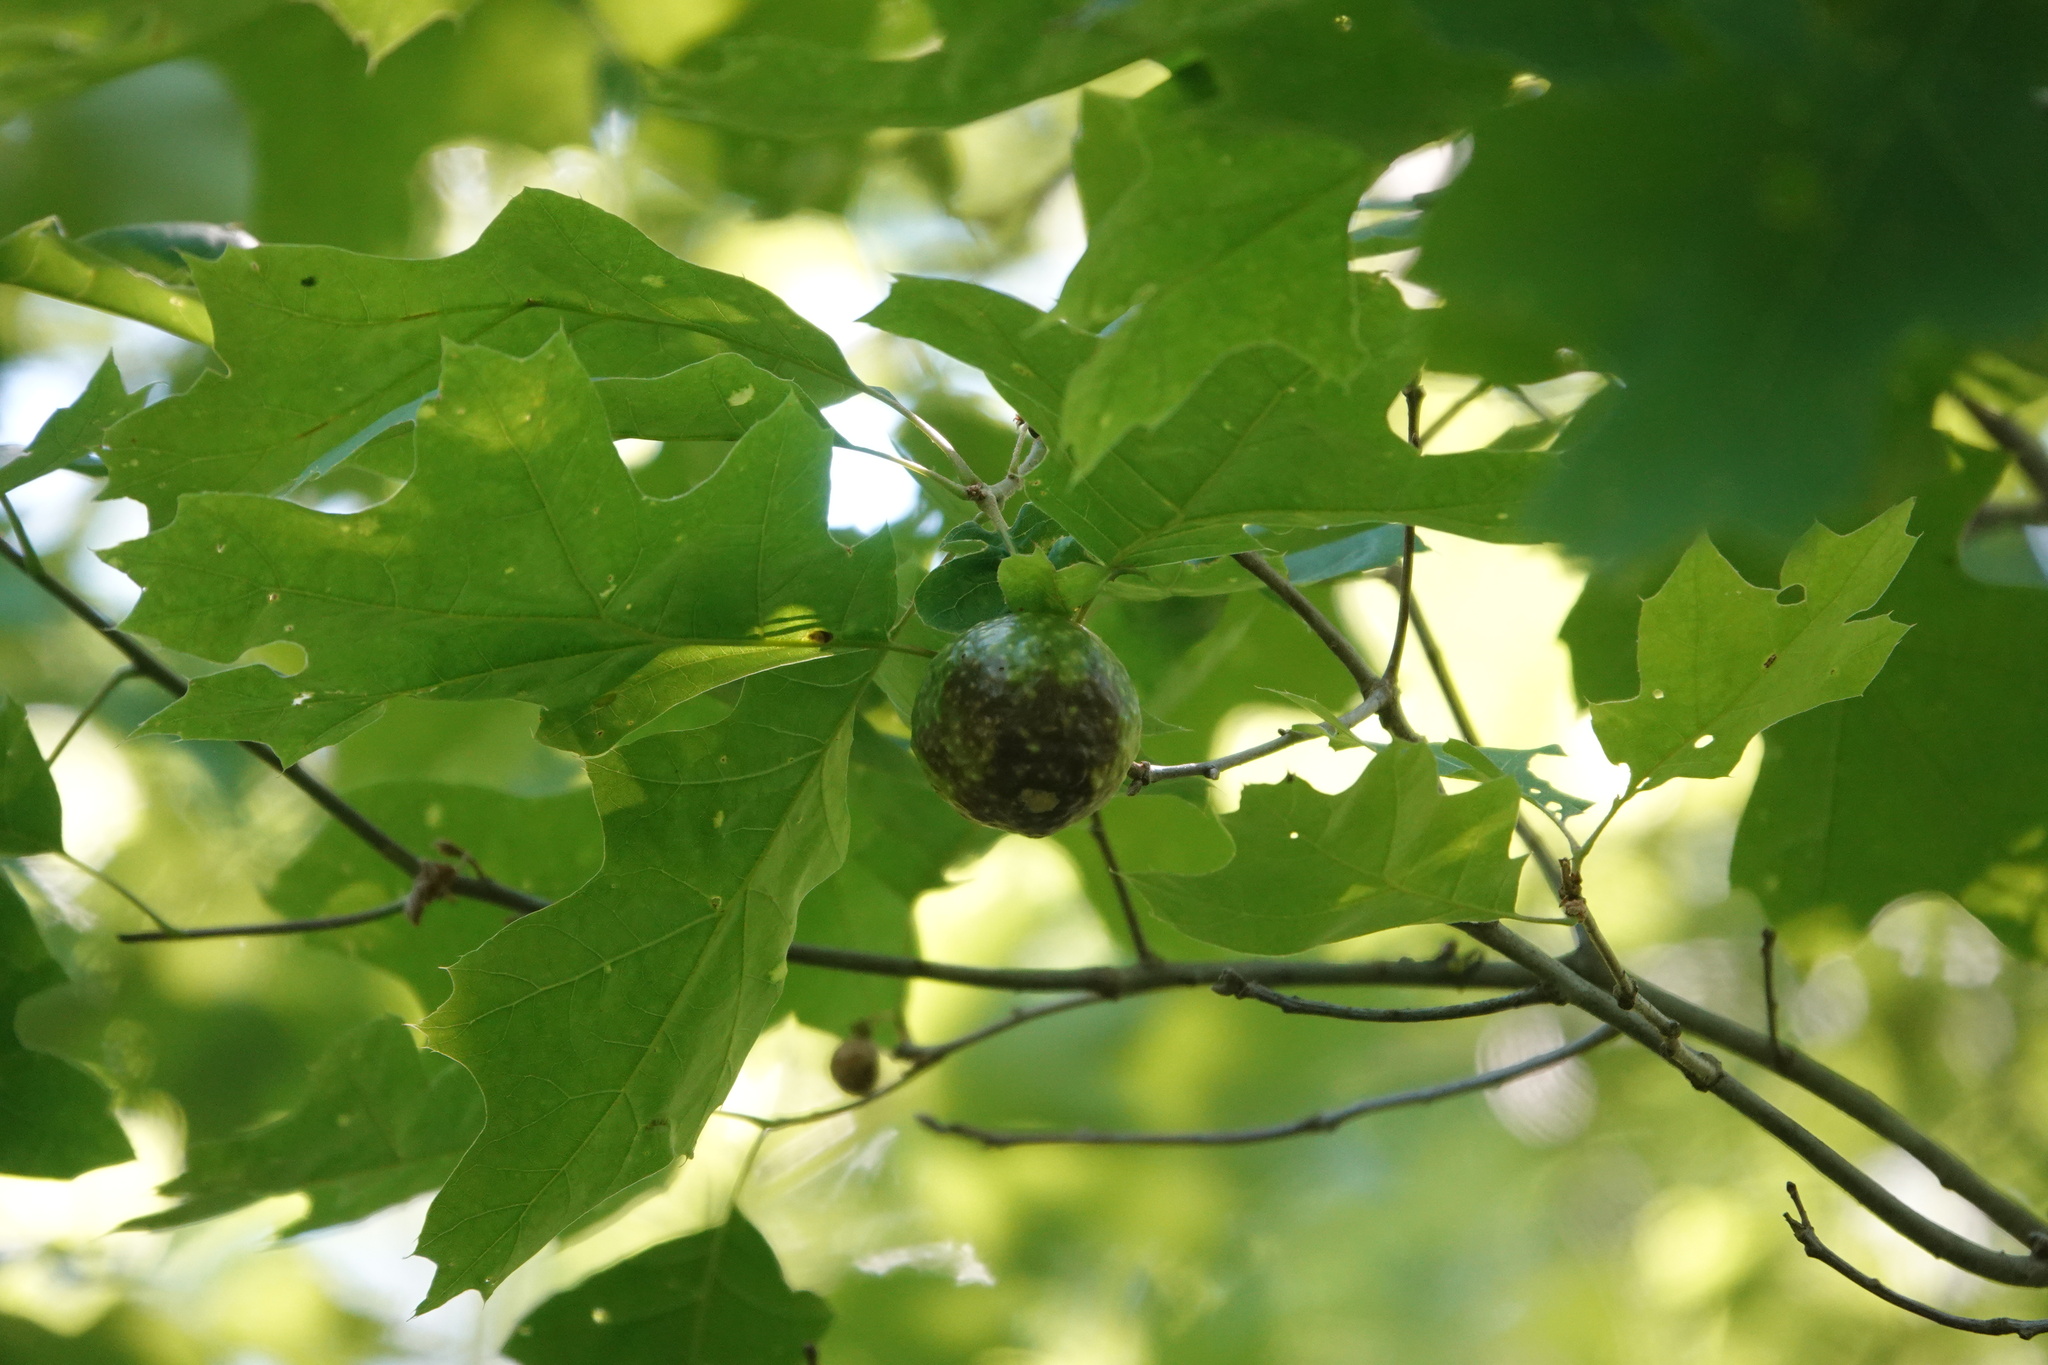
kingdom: Animalia
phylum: Arthropoda
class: Insecta
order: Hymenoptera
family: Cynipidae
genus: Amphibolips
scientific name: Amphibolips
